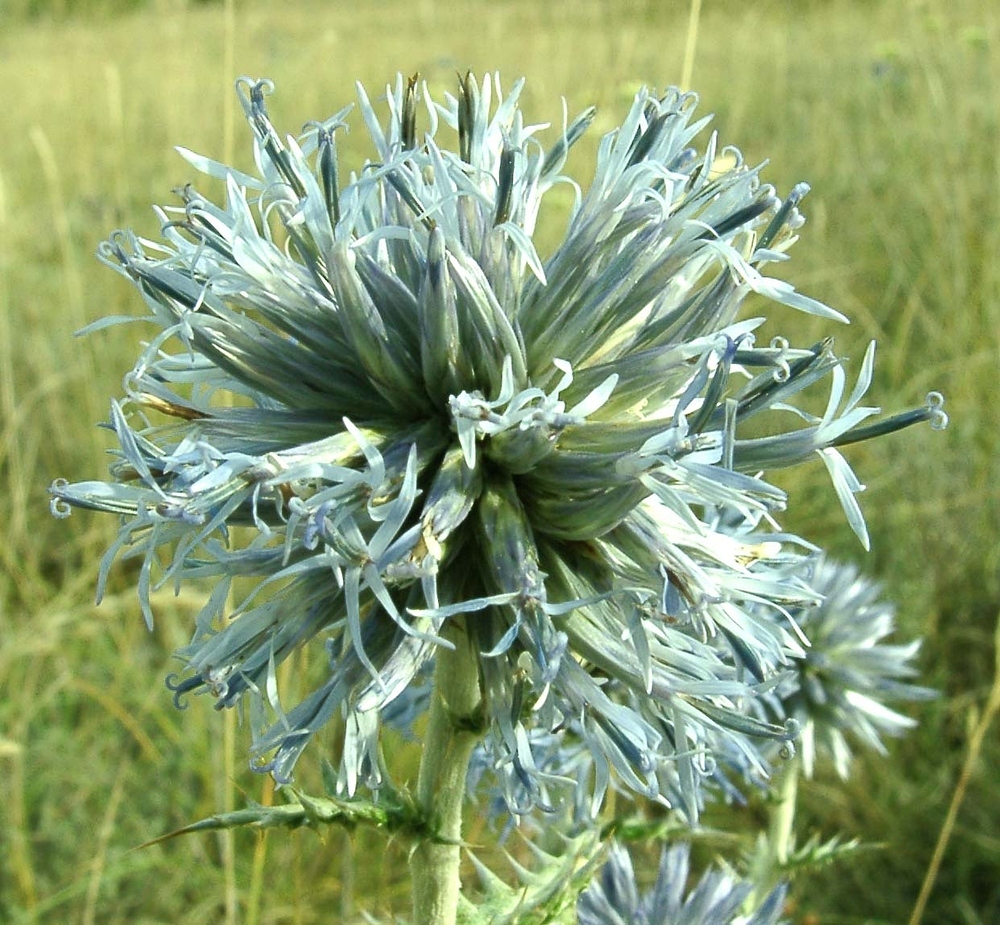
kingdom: Plantae
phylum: Tracheophyta
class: Magnoliopsida
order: Asterales
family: Asteraceae
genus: Echinops
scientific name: Echinops ritro
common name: Globe thistle
